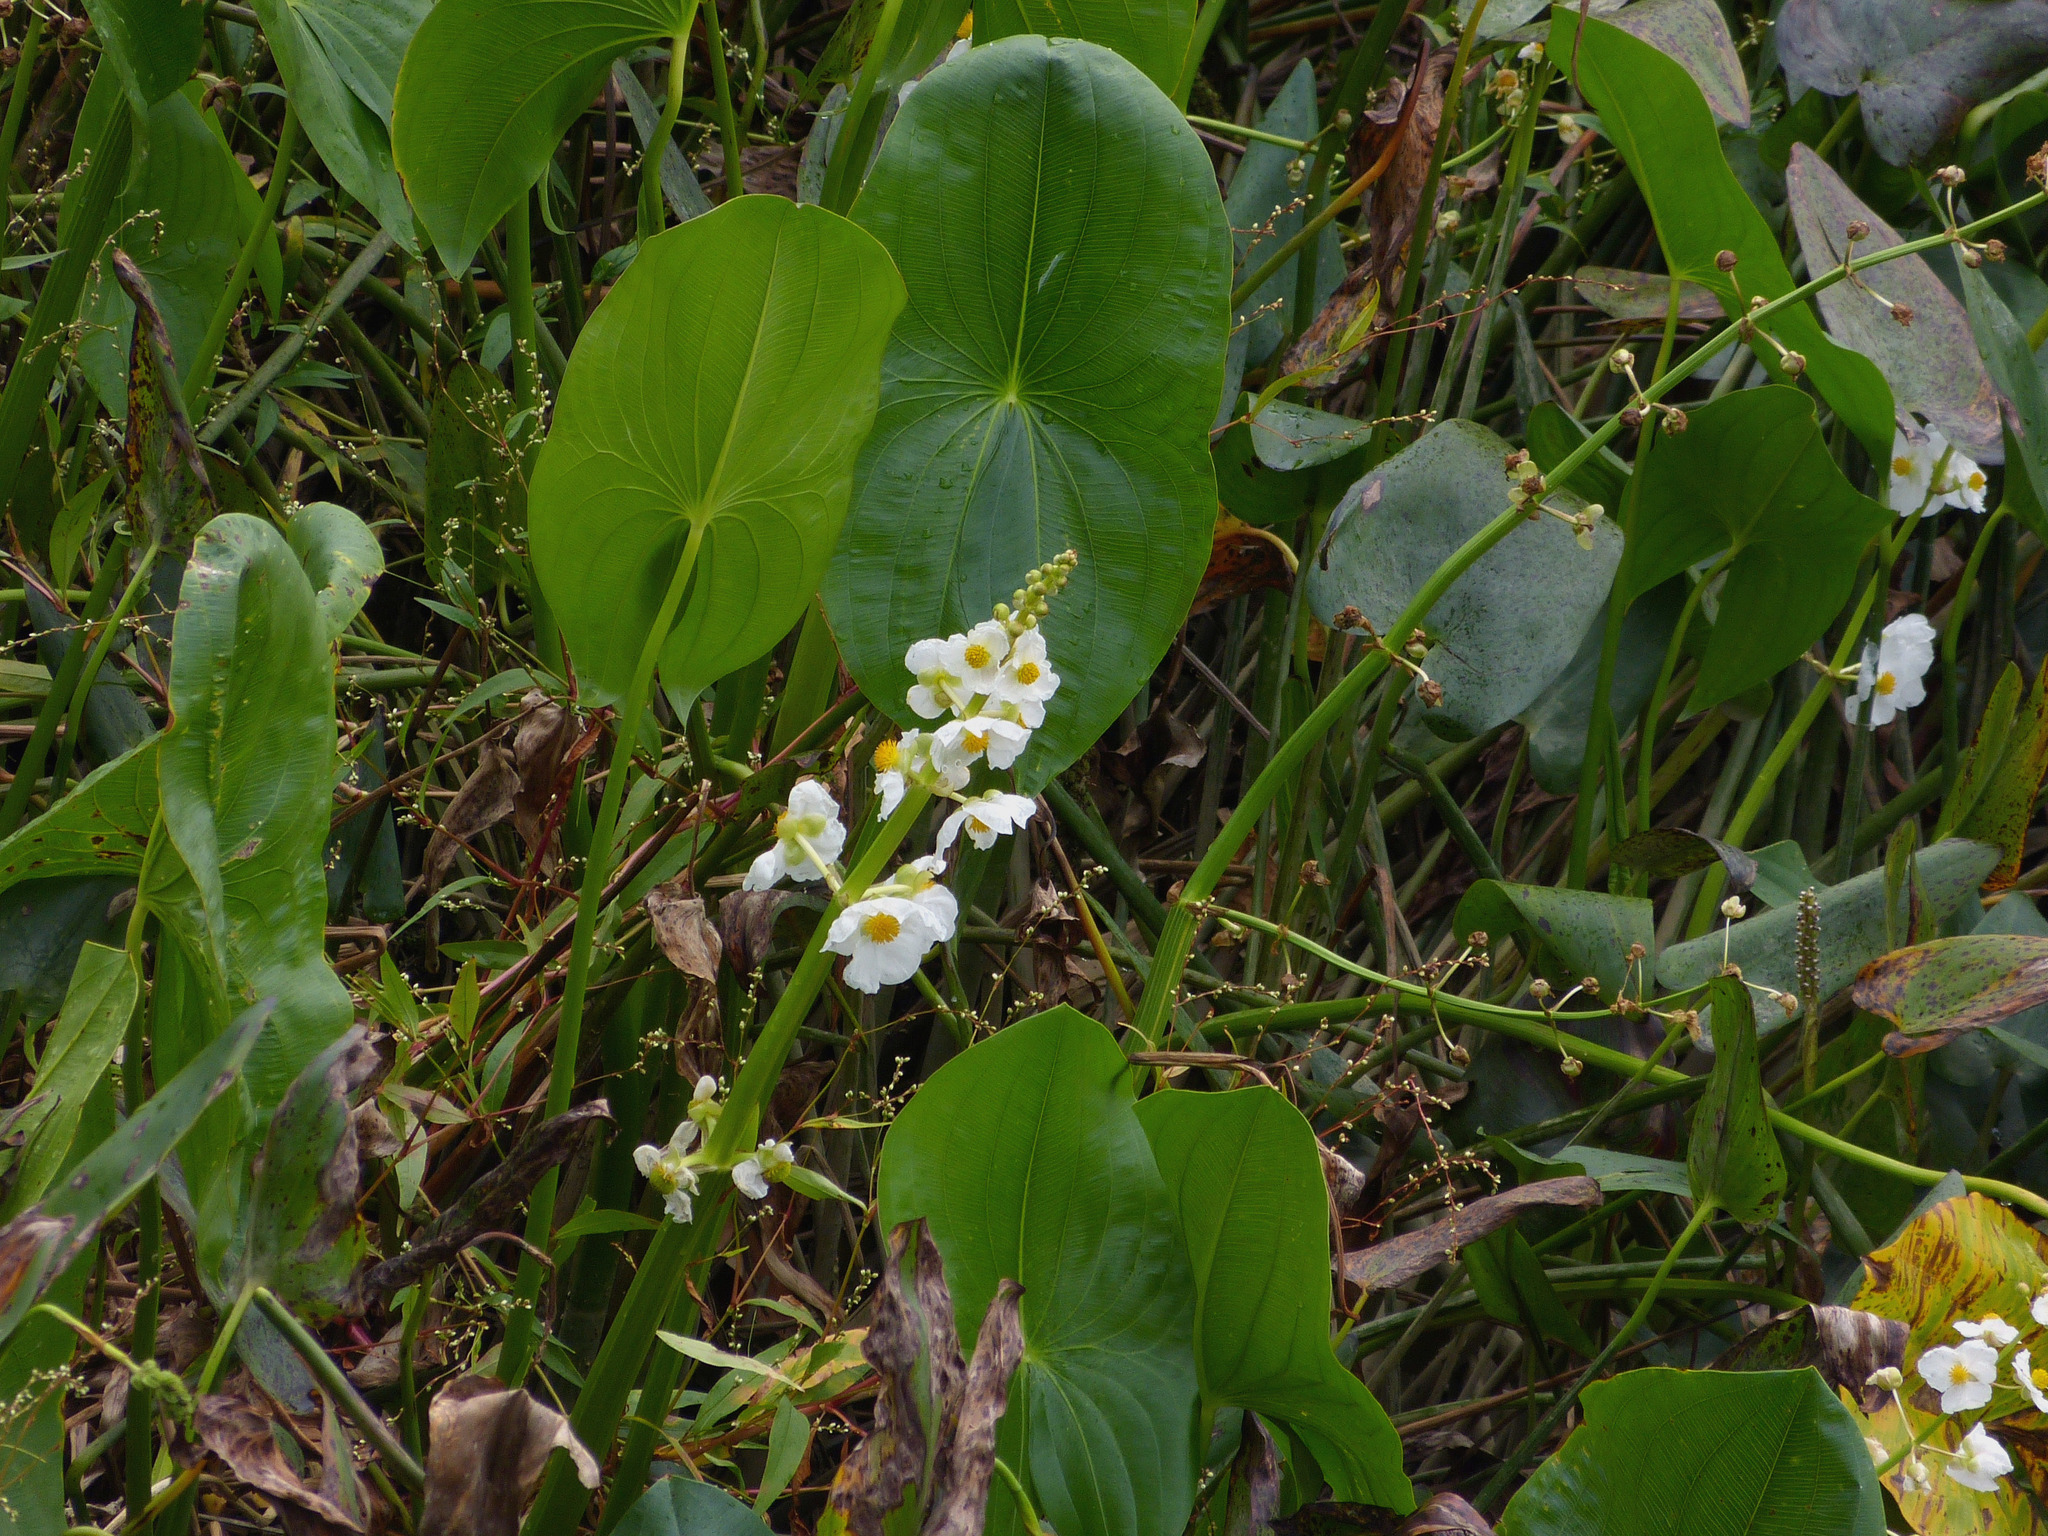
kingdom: Plantae
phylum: Tracheophyta
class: Liliopsida
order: Alismatales
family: Alismataceae
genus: Sagittaria
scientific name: Sagittaria latifolia
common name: Duck-potato
